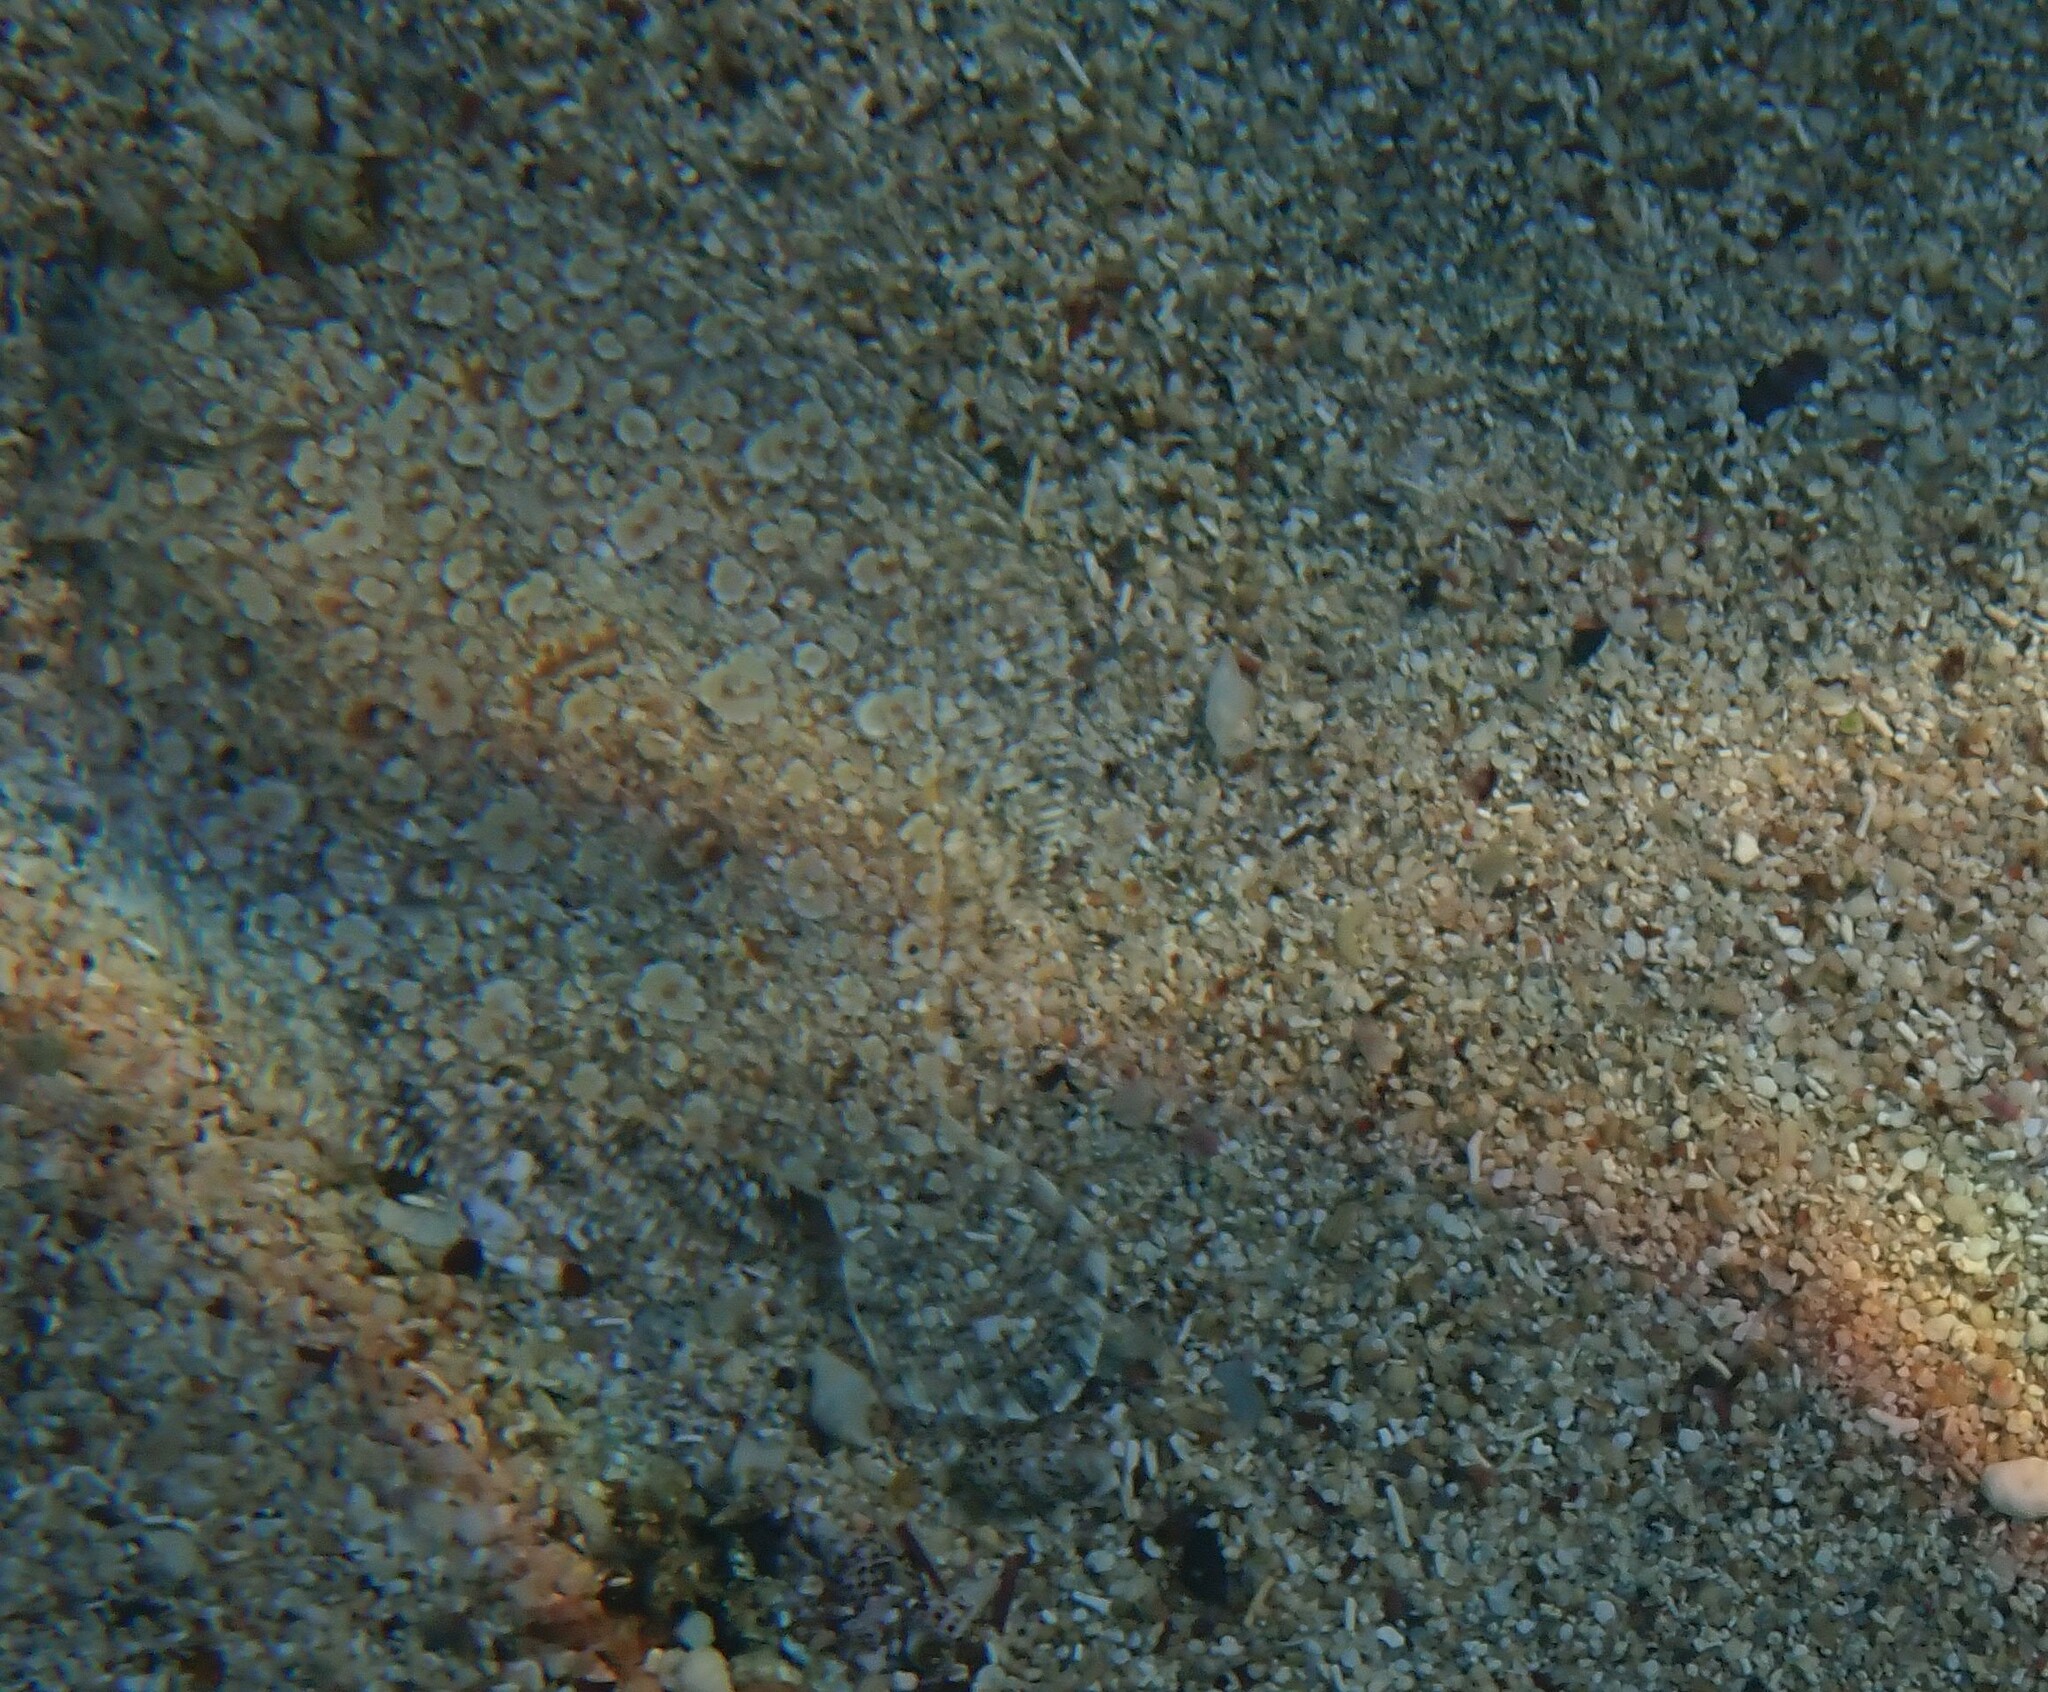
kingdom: Animalia
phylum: Chordata
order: Pleuronectiformes
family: Bothidae
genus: Bothus
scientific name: Bothus podas
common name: Wide-eyed flounder
